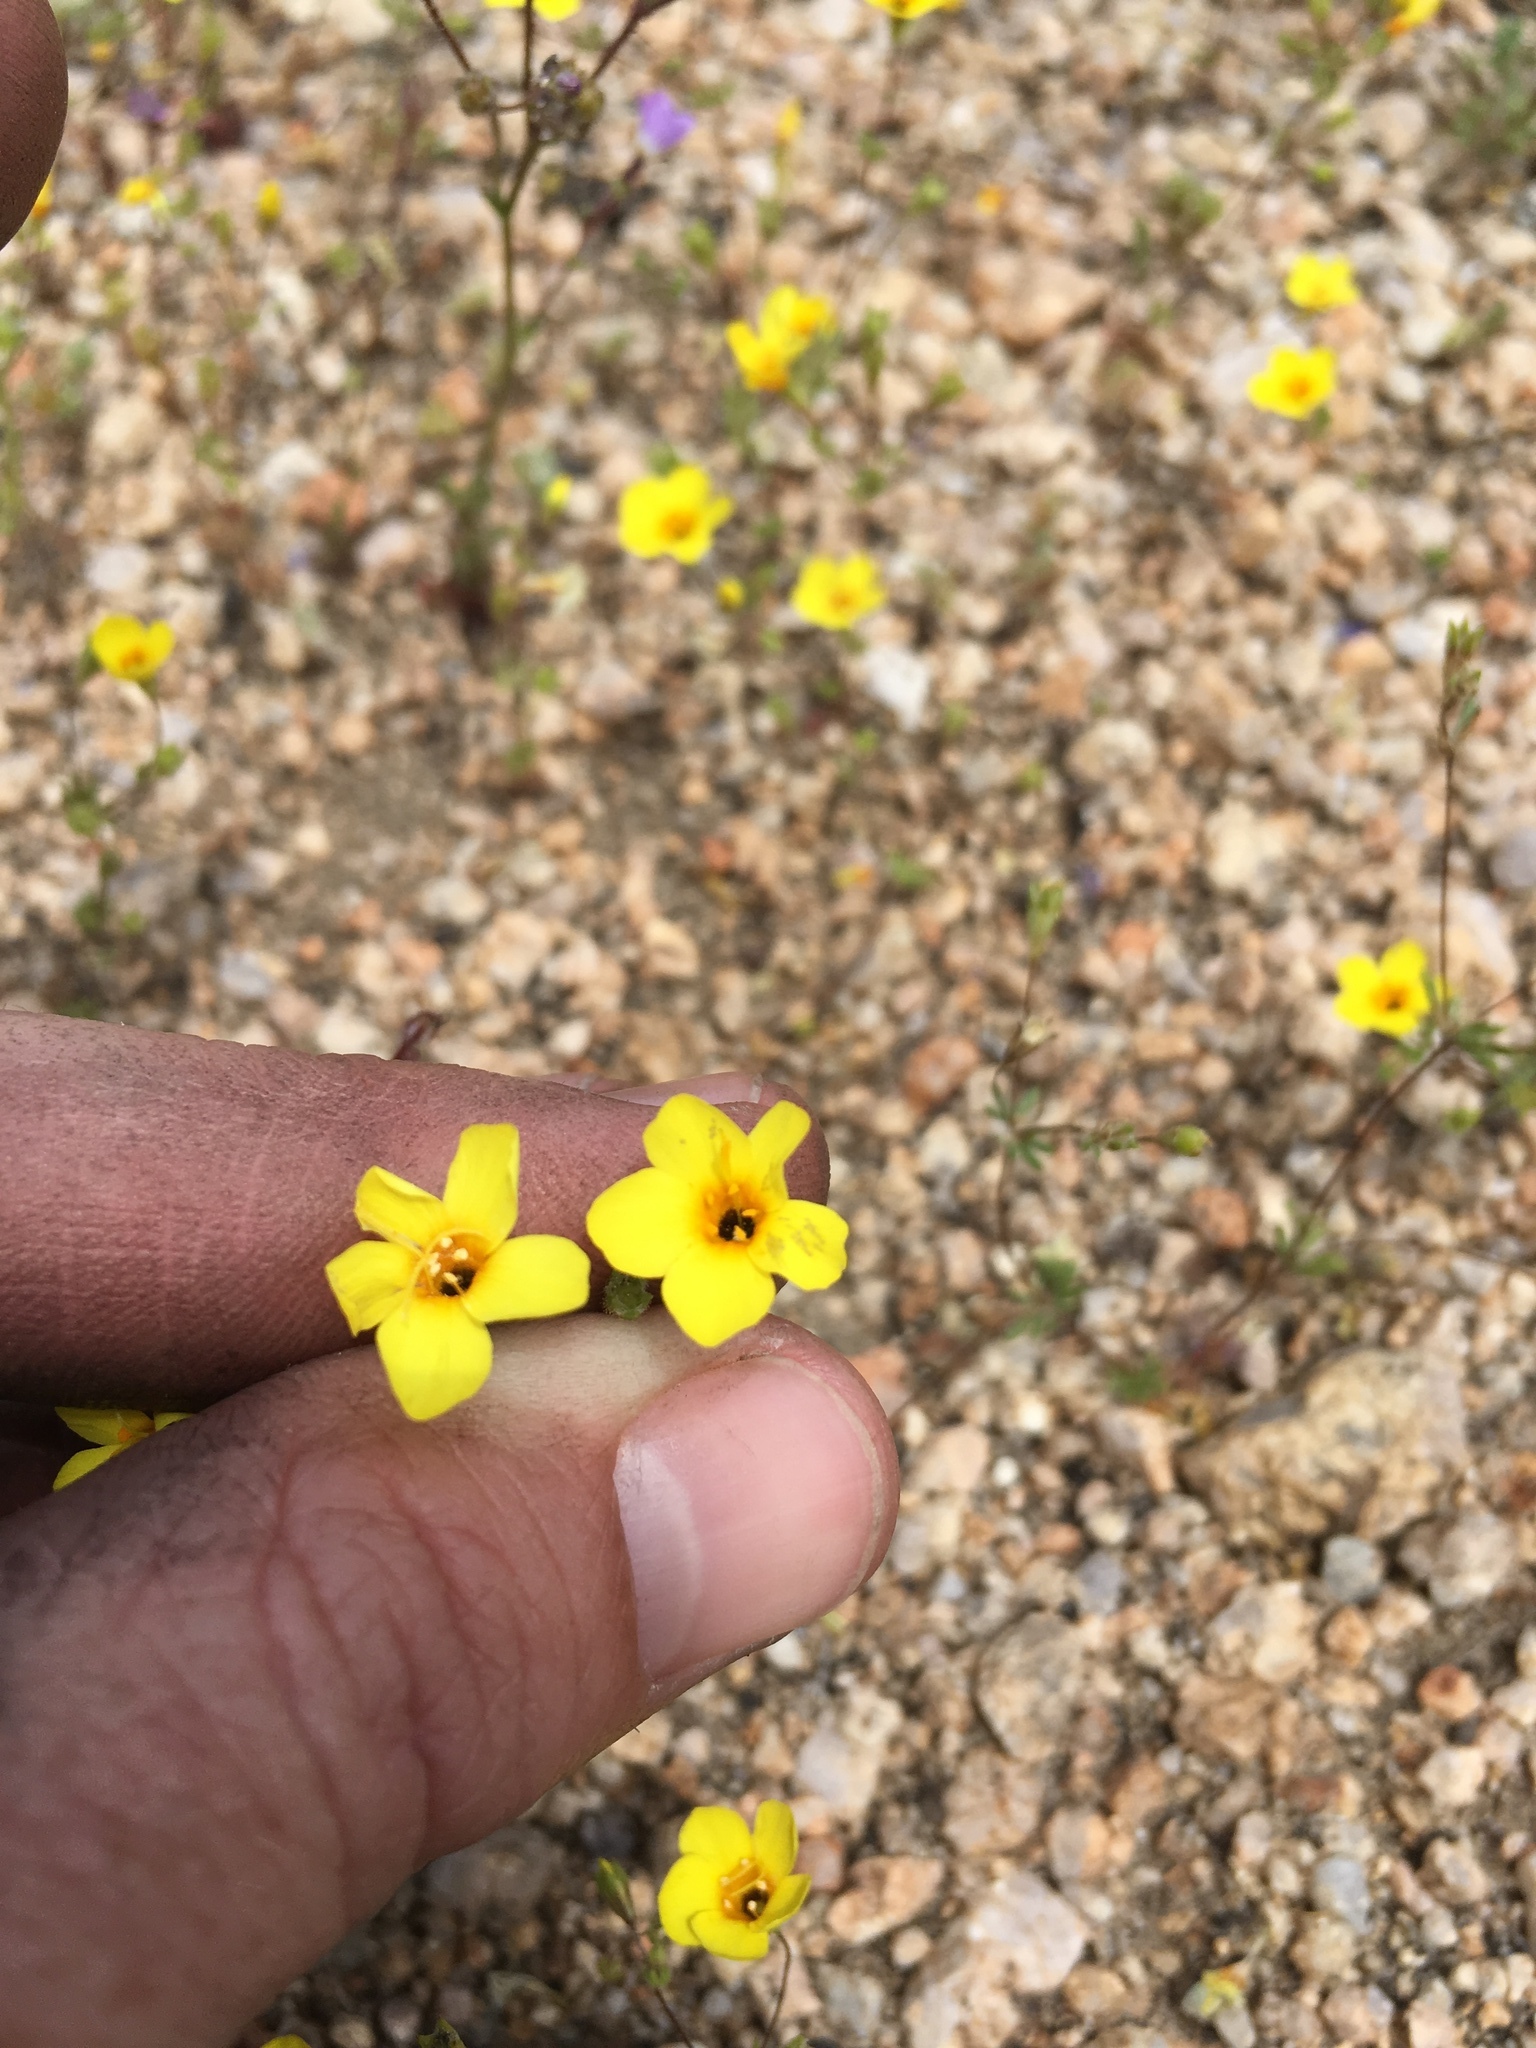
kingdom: Plantae
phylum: Tracheophyta
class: Magnoliopsida
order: Ericales
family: Polemoniaceae
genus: Leptosiphon
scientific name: Leptosiphon chrysanthus
